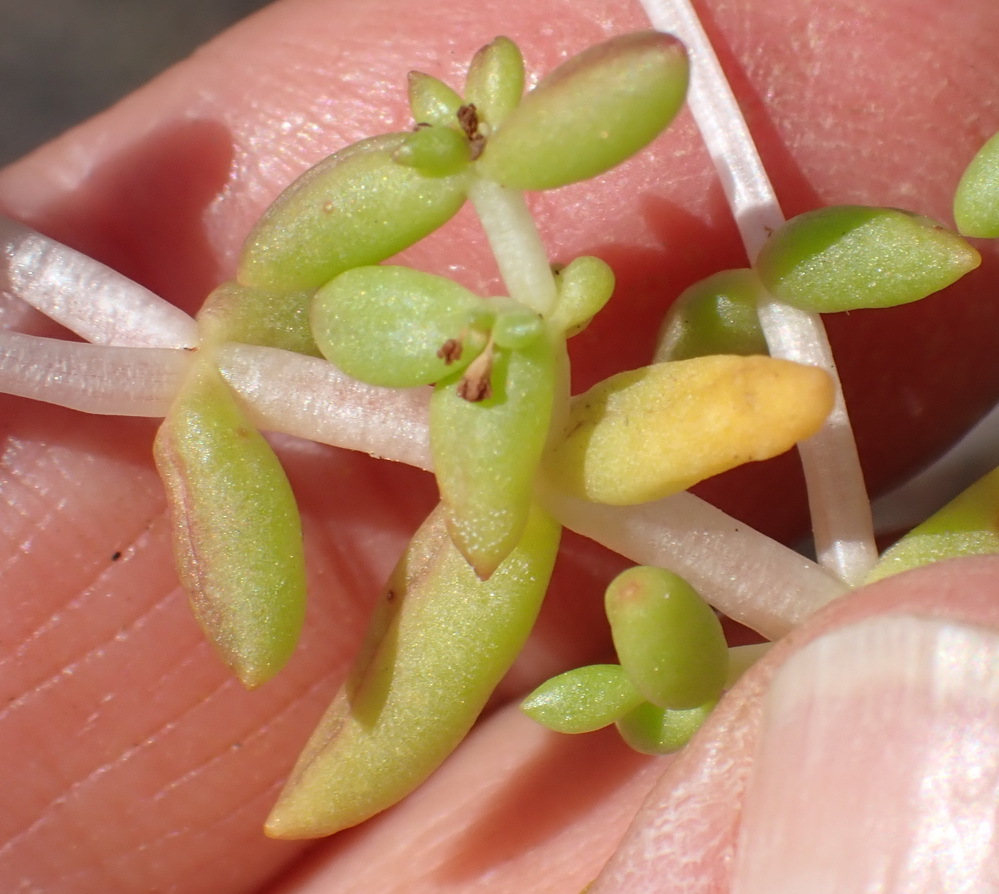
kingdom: Plantae
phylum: Tracheophyta
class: Magnoliopsida
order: Saxifragales
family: Crassulaceae
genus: Crassula
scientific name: Crassula expansa
